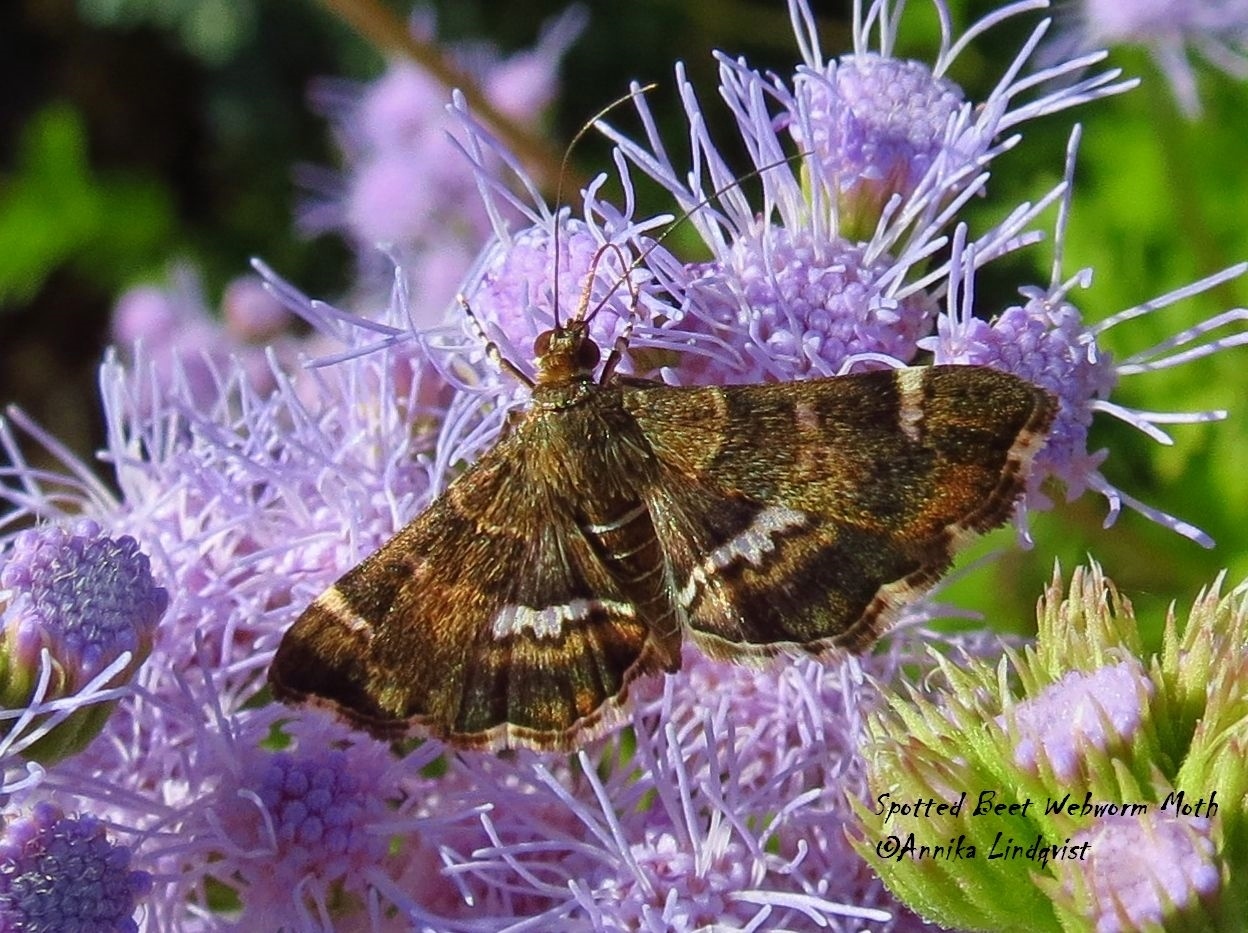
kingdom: Animalia
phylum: Arthropoda
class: Insecta
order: Lepidoptera
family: Crambidae
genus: Hymenia
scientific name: Hymenia perspectalis
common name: Spotted beet webworm
